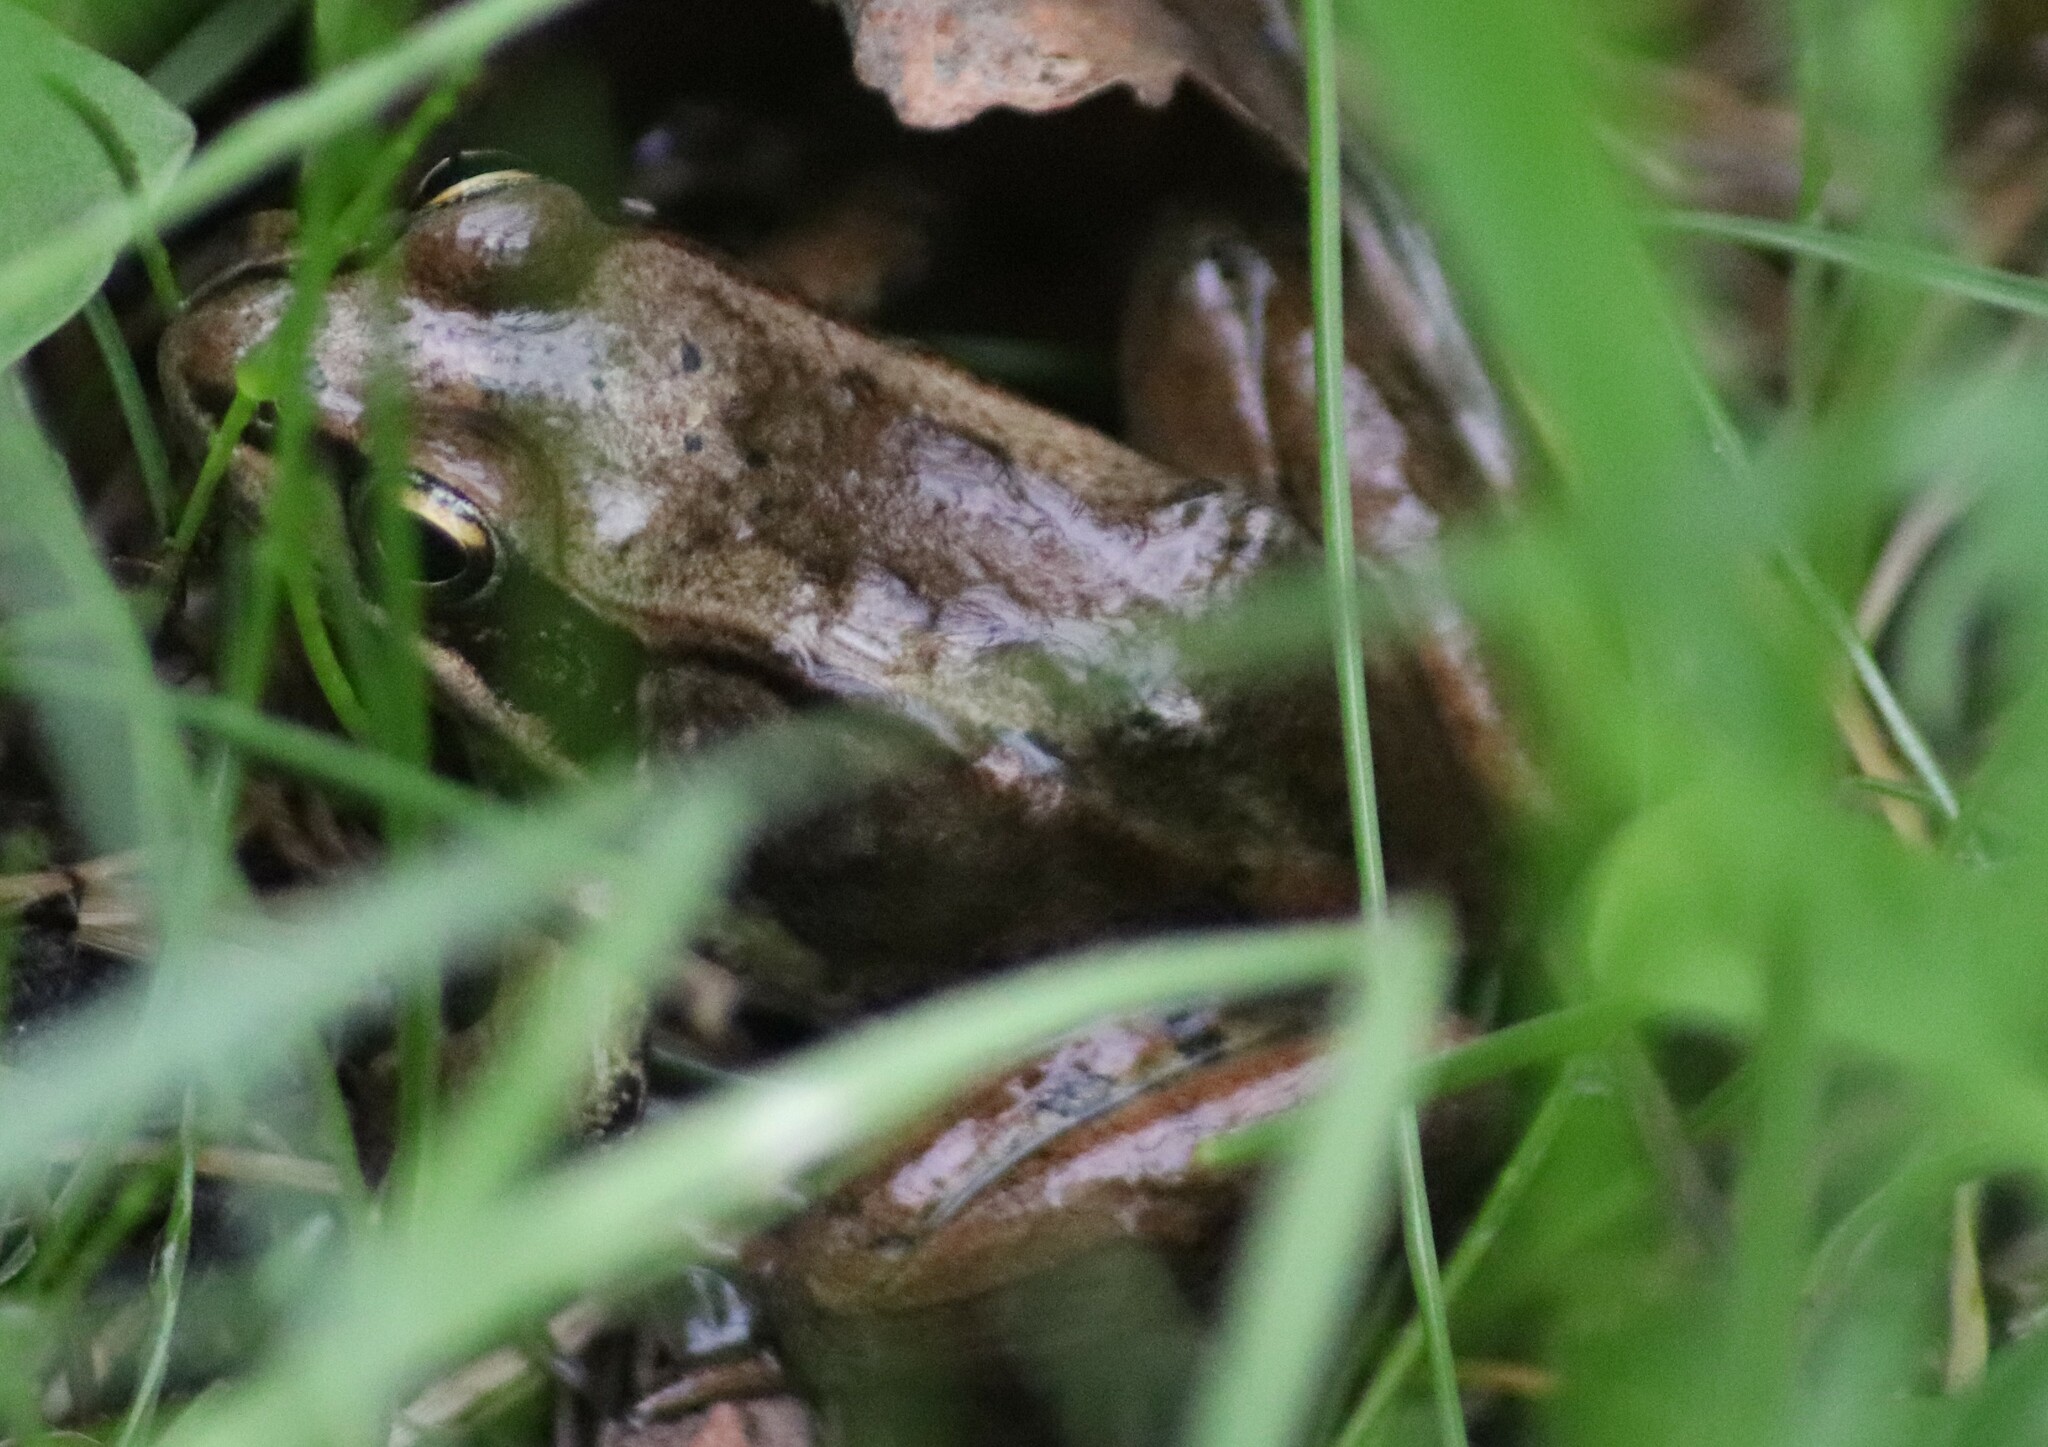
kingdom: Animalia
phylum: Chordata
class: Amphibia
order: Anura
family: Ranidae
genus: Lithobates
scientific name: Lithobates sylvaticus
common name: Wood frog
